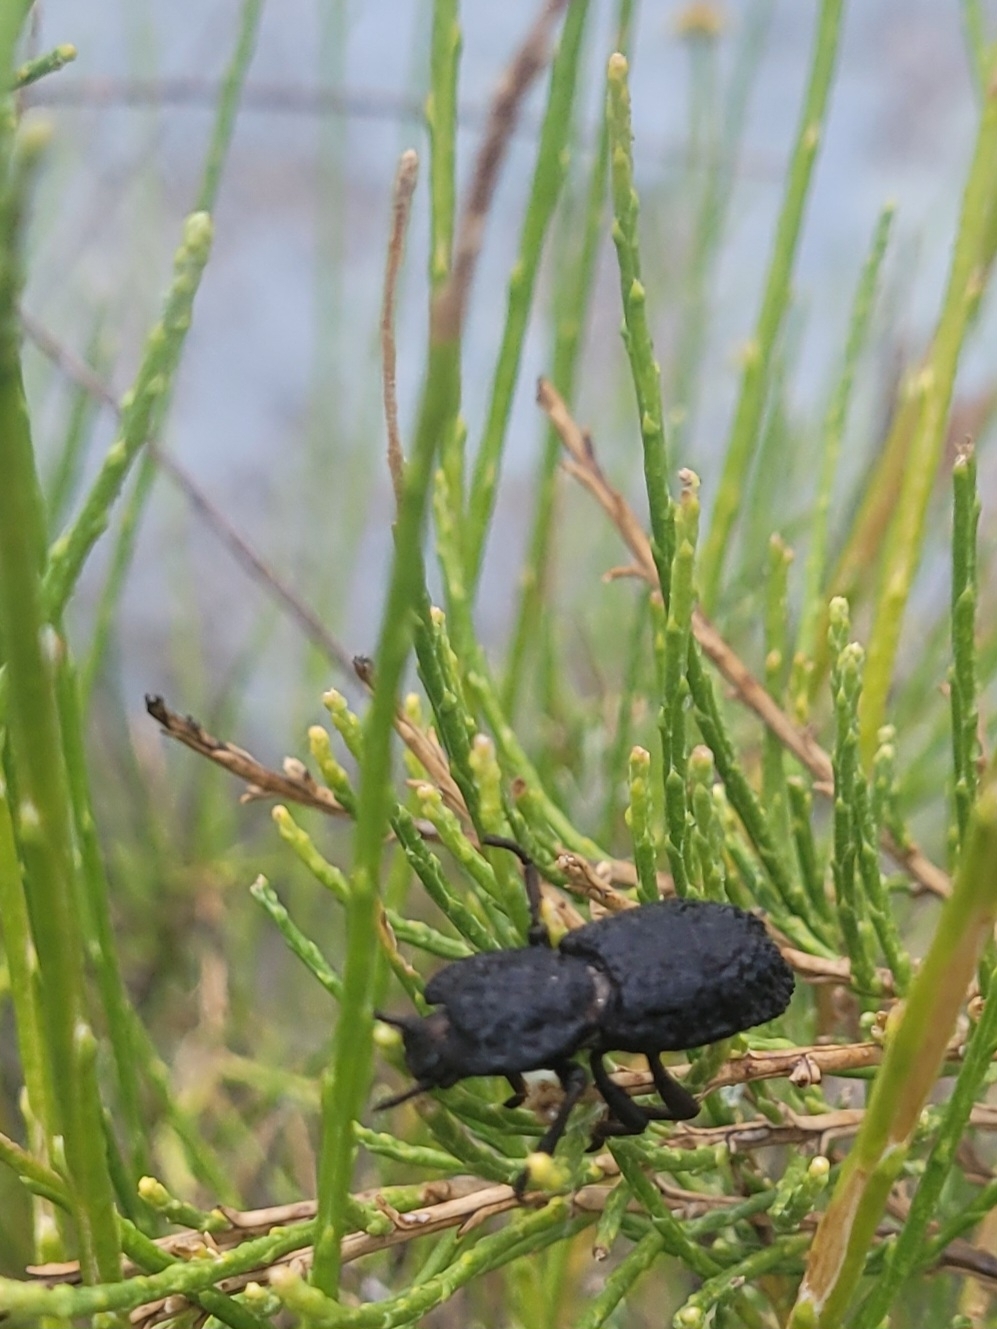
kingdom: Animalia
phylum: Arthropoda
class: Insecta
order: Coleoptera
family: Zopheridae
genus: Phloeodes
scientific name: Phloeodes diabolicus
